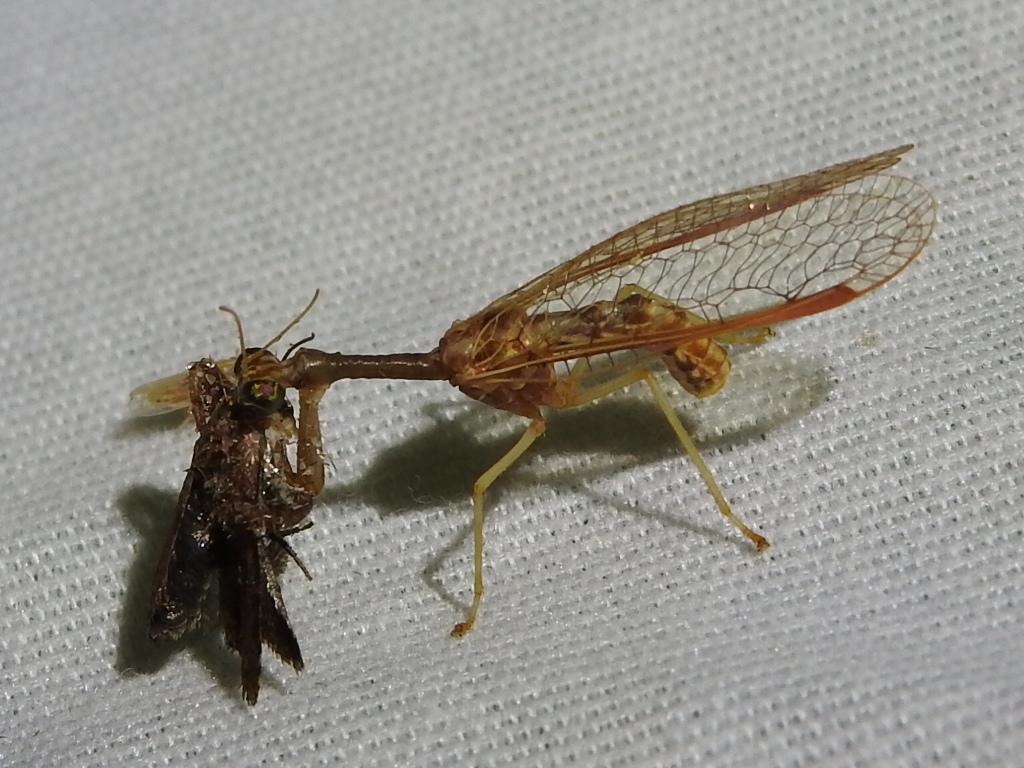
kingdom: Animalia
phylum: Arthropoda
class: Insecta
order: Neuroptera
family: Mantispidae
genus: Dicromantispa
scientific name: Dicromantispa sayi
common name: Say's mantidfly
